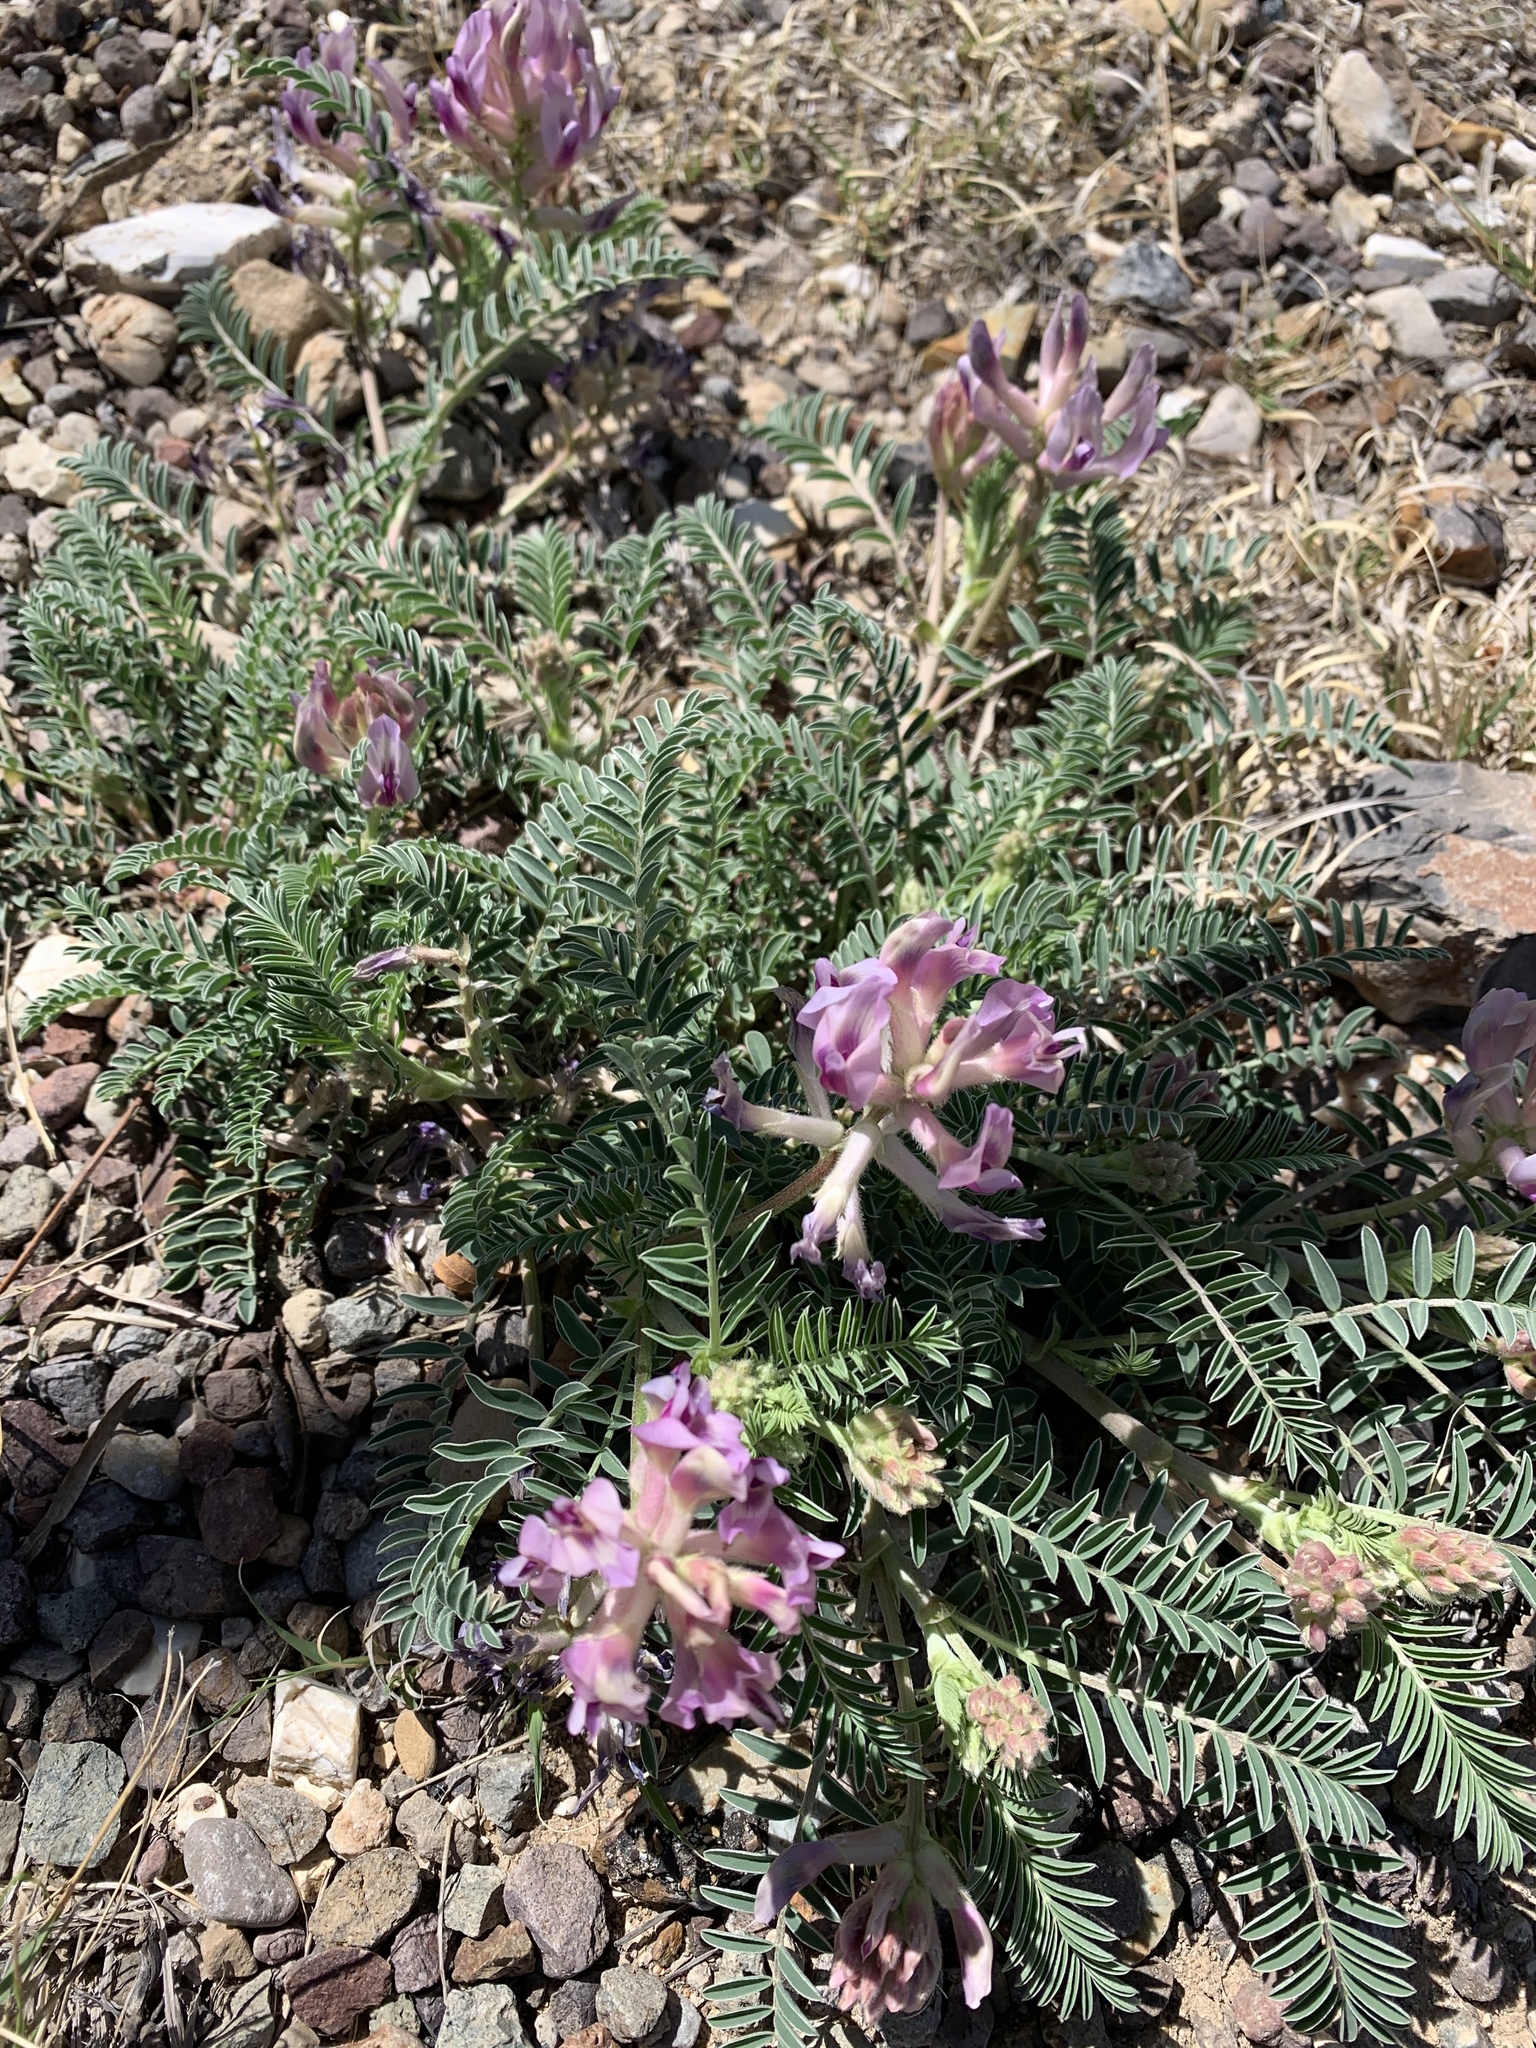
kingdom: Plantae
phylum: Tracheophyta
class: Magnoliopsida
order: Fabales
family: Fabaceae
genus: Astragalus
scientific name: Astragalus crassicarpus
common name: Ground-plum milk-vetch
